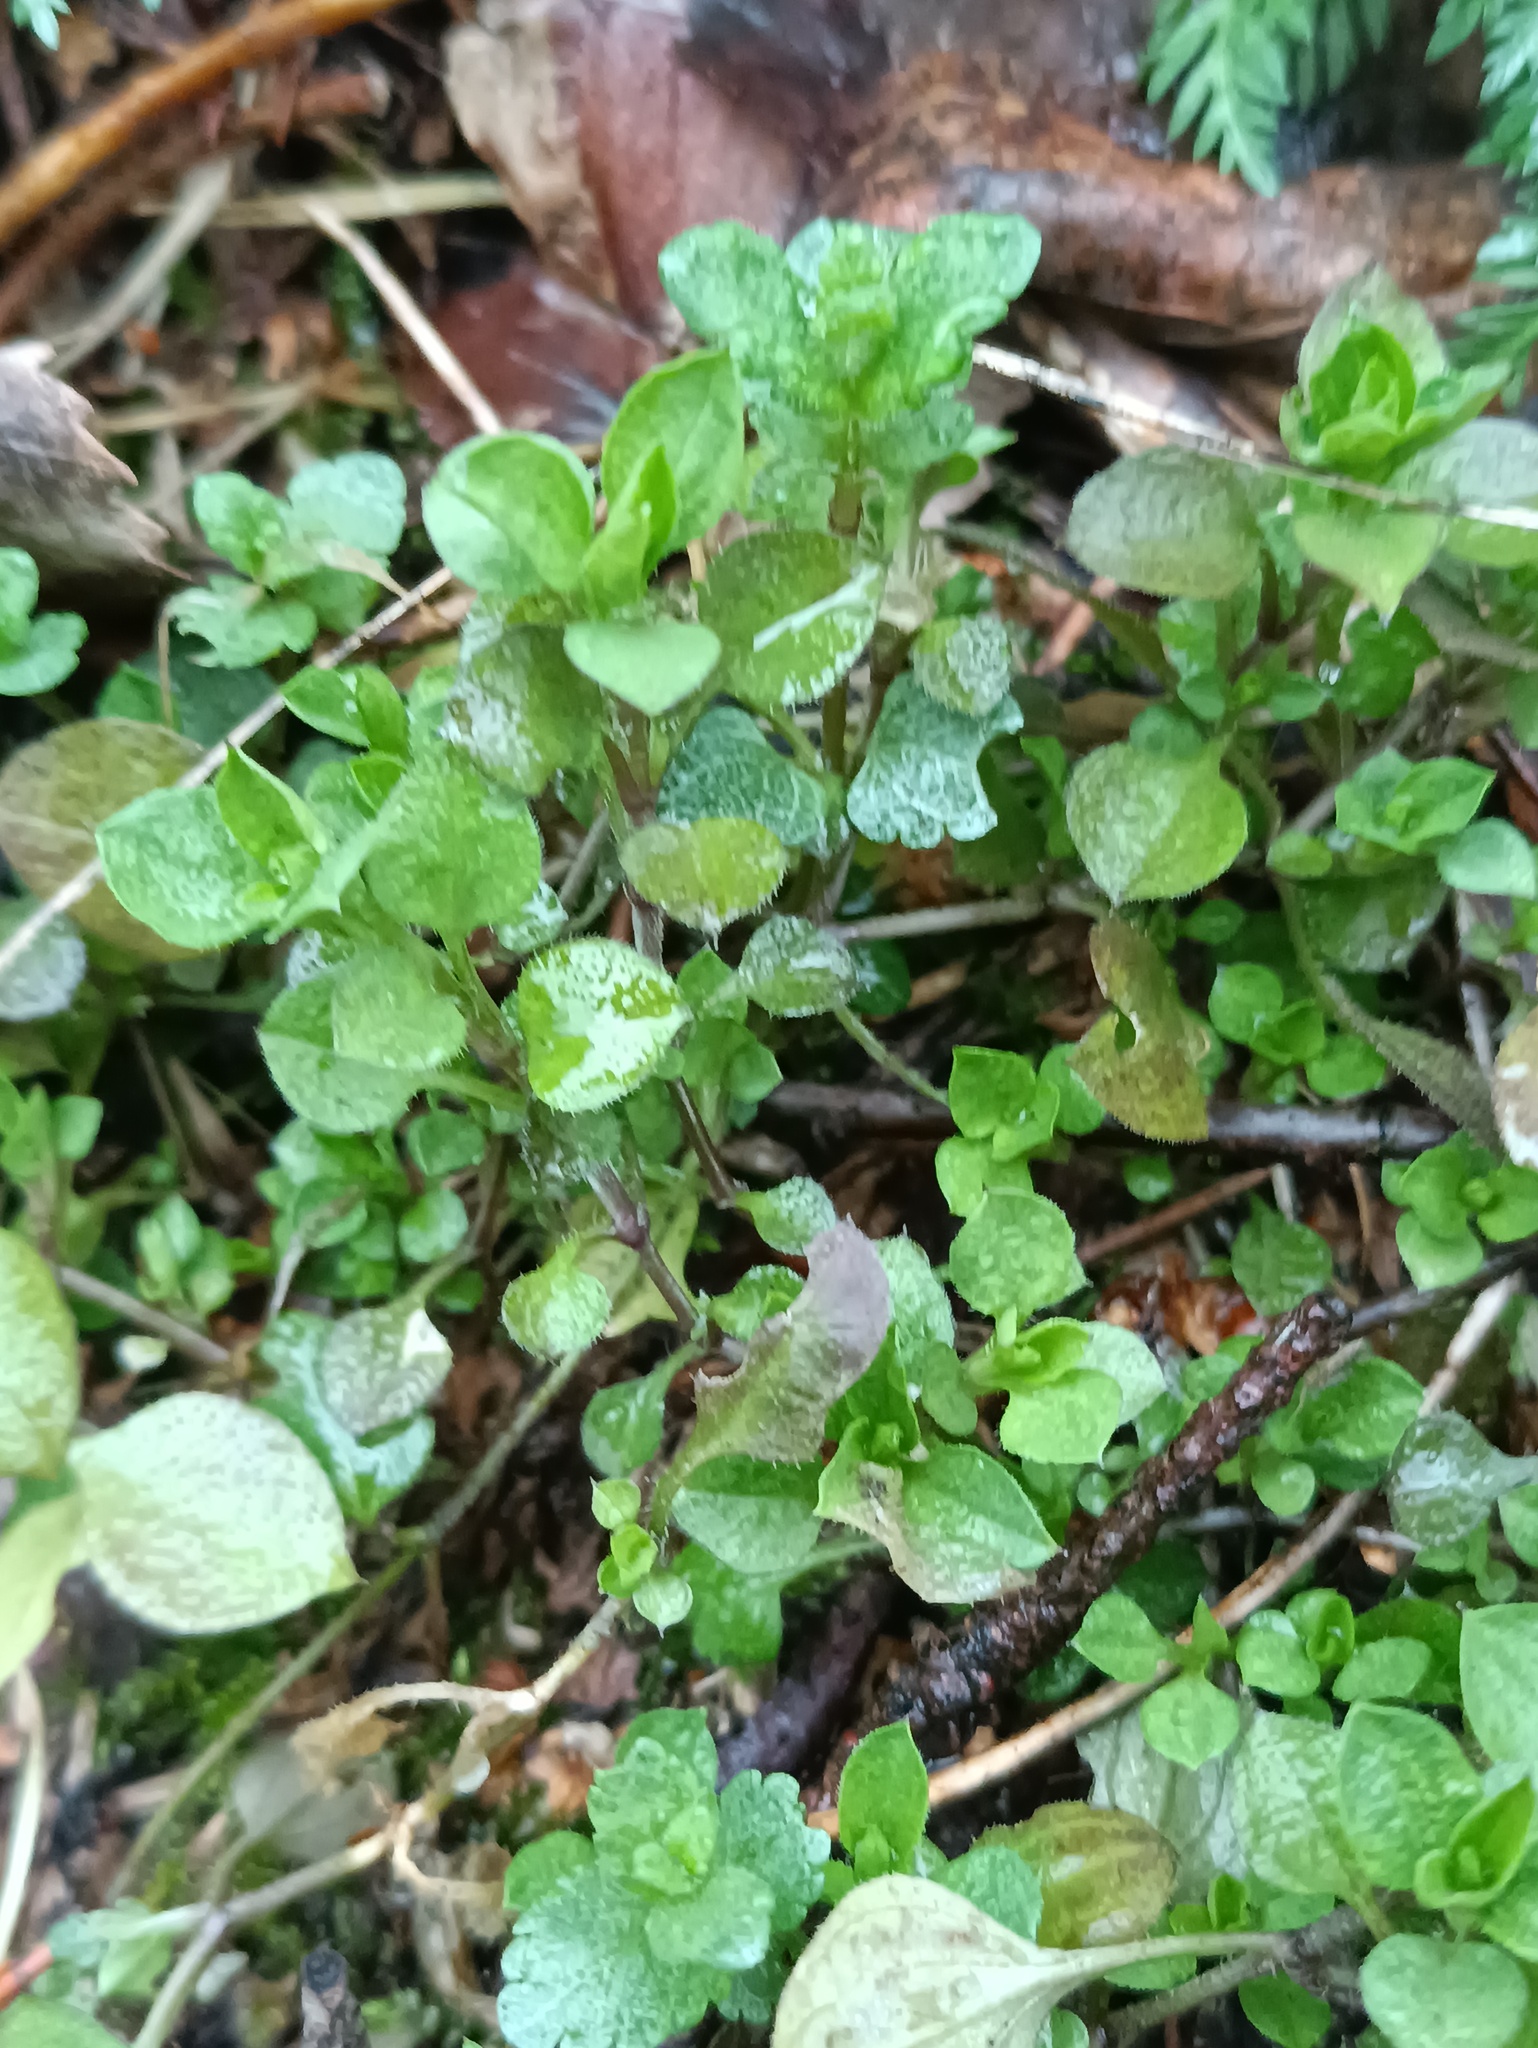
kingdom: Plantae
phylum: Tracheophyta
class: Magnoliopsida
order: Caryophyllales
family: Caryophyllaceae
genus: Moehringia
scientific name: Moehringia trinervia
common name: Three-nerved sandwort
